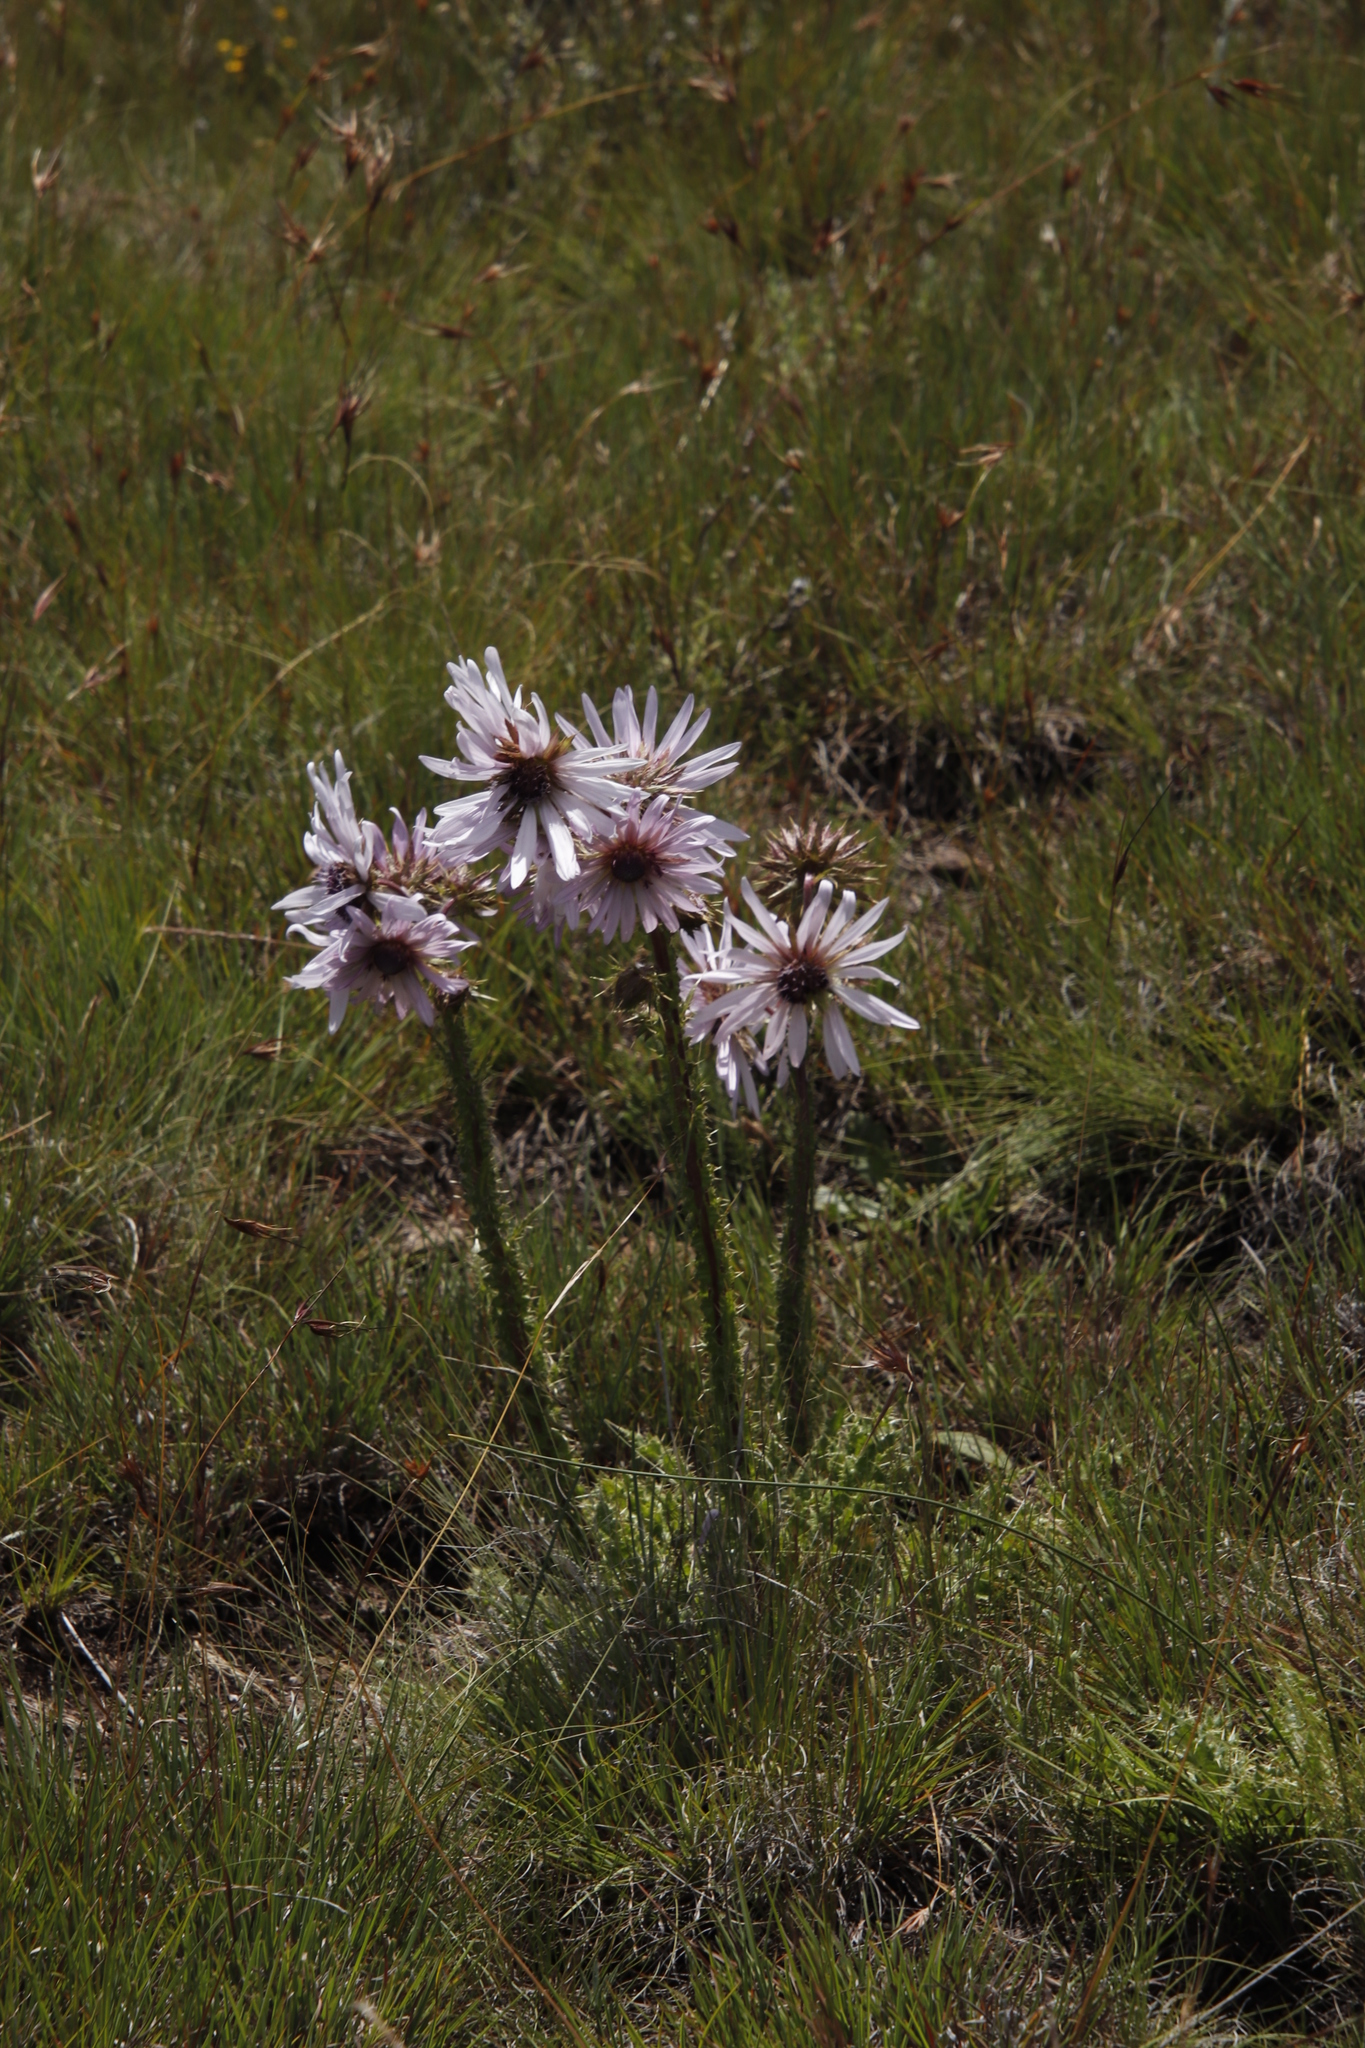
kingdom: Plantae
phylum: Tracheophyta
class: Magnoliopsida
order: Asterales
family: Asteraceae
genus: Berkheya
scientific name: Berkheya purpurea
